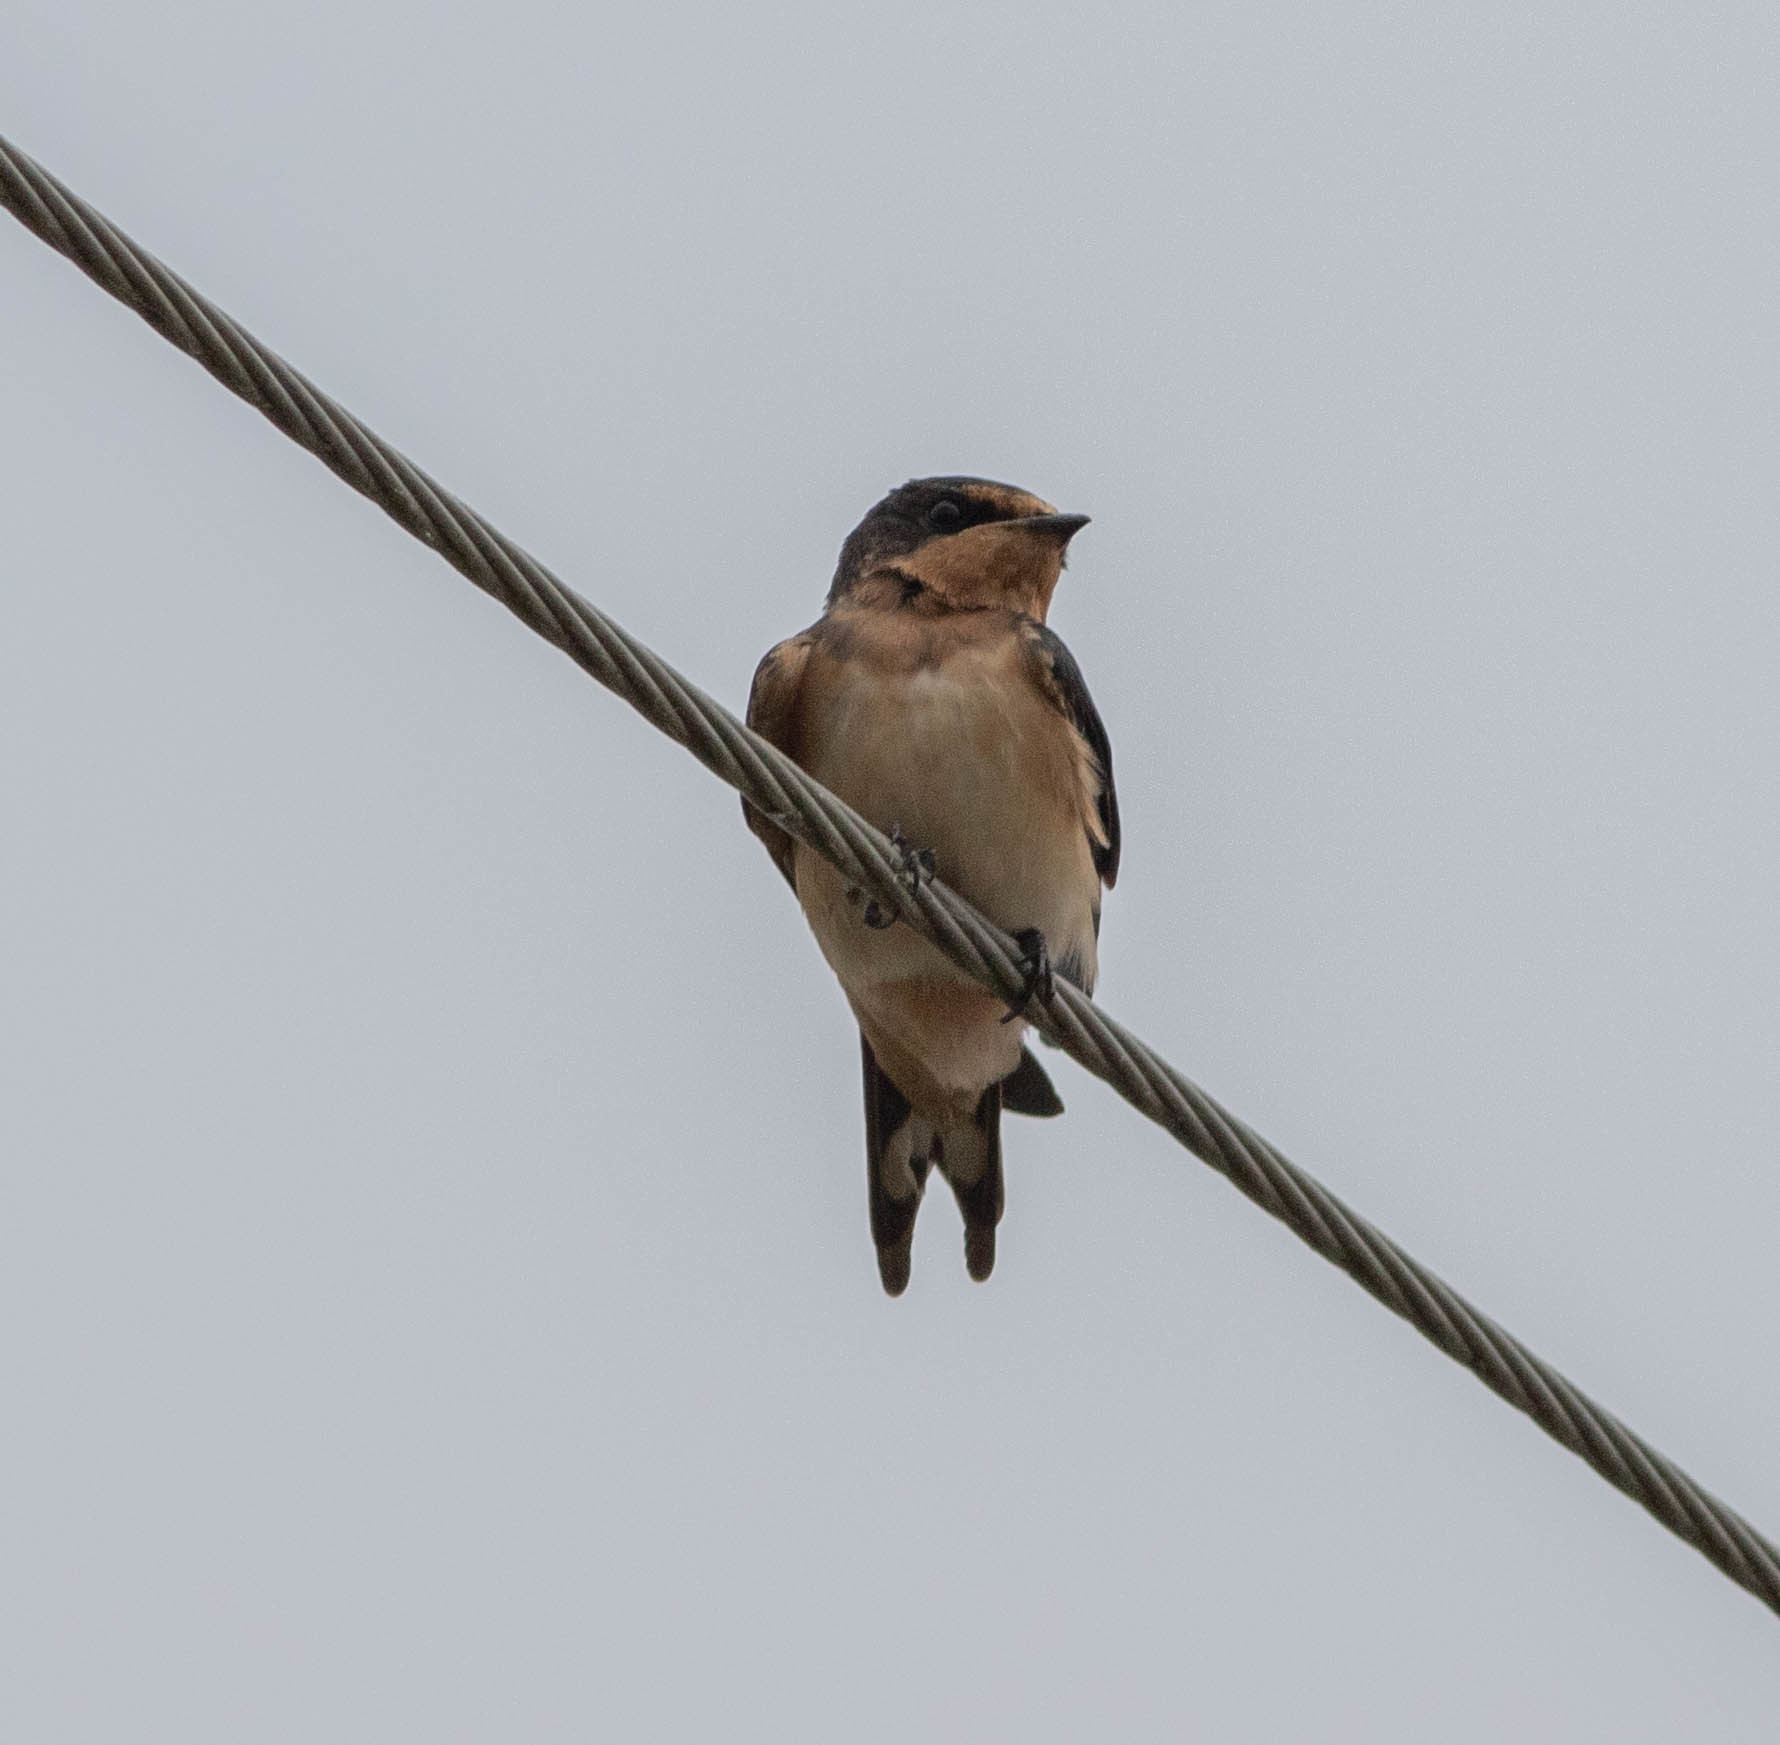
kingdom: Animalia
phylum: Chordata
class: Aves
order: Passeriformes
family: Hirundinidae
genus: Hirundo
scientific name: Hirundo rustica
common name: Barn swallow
